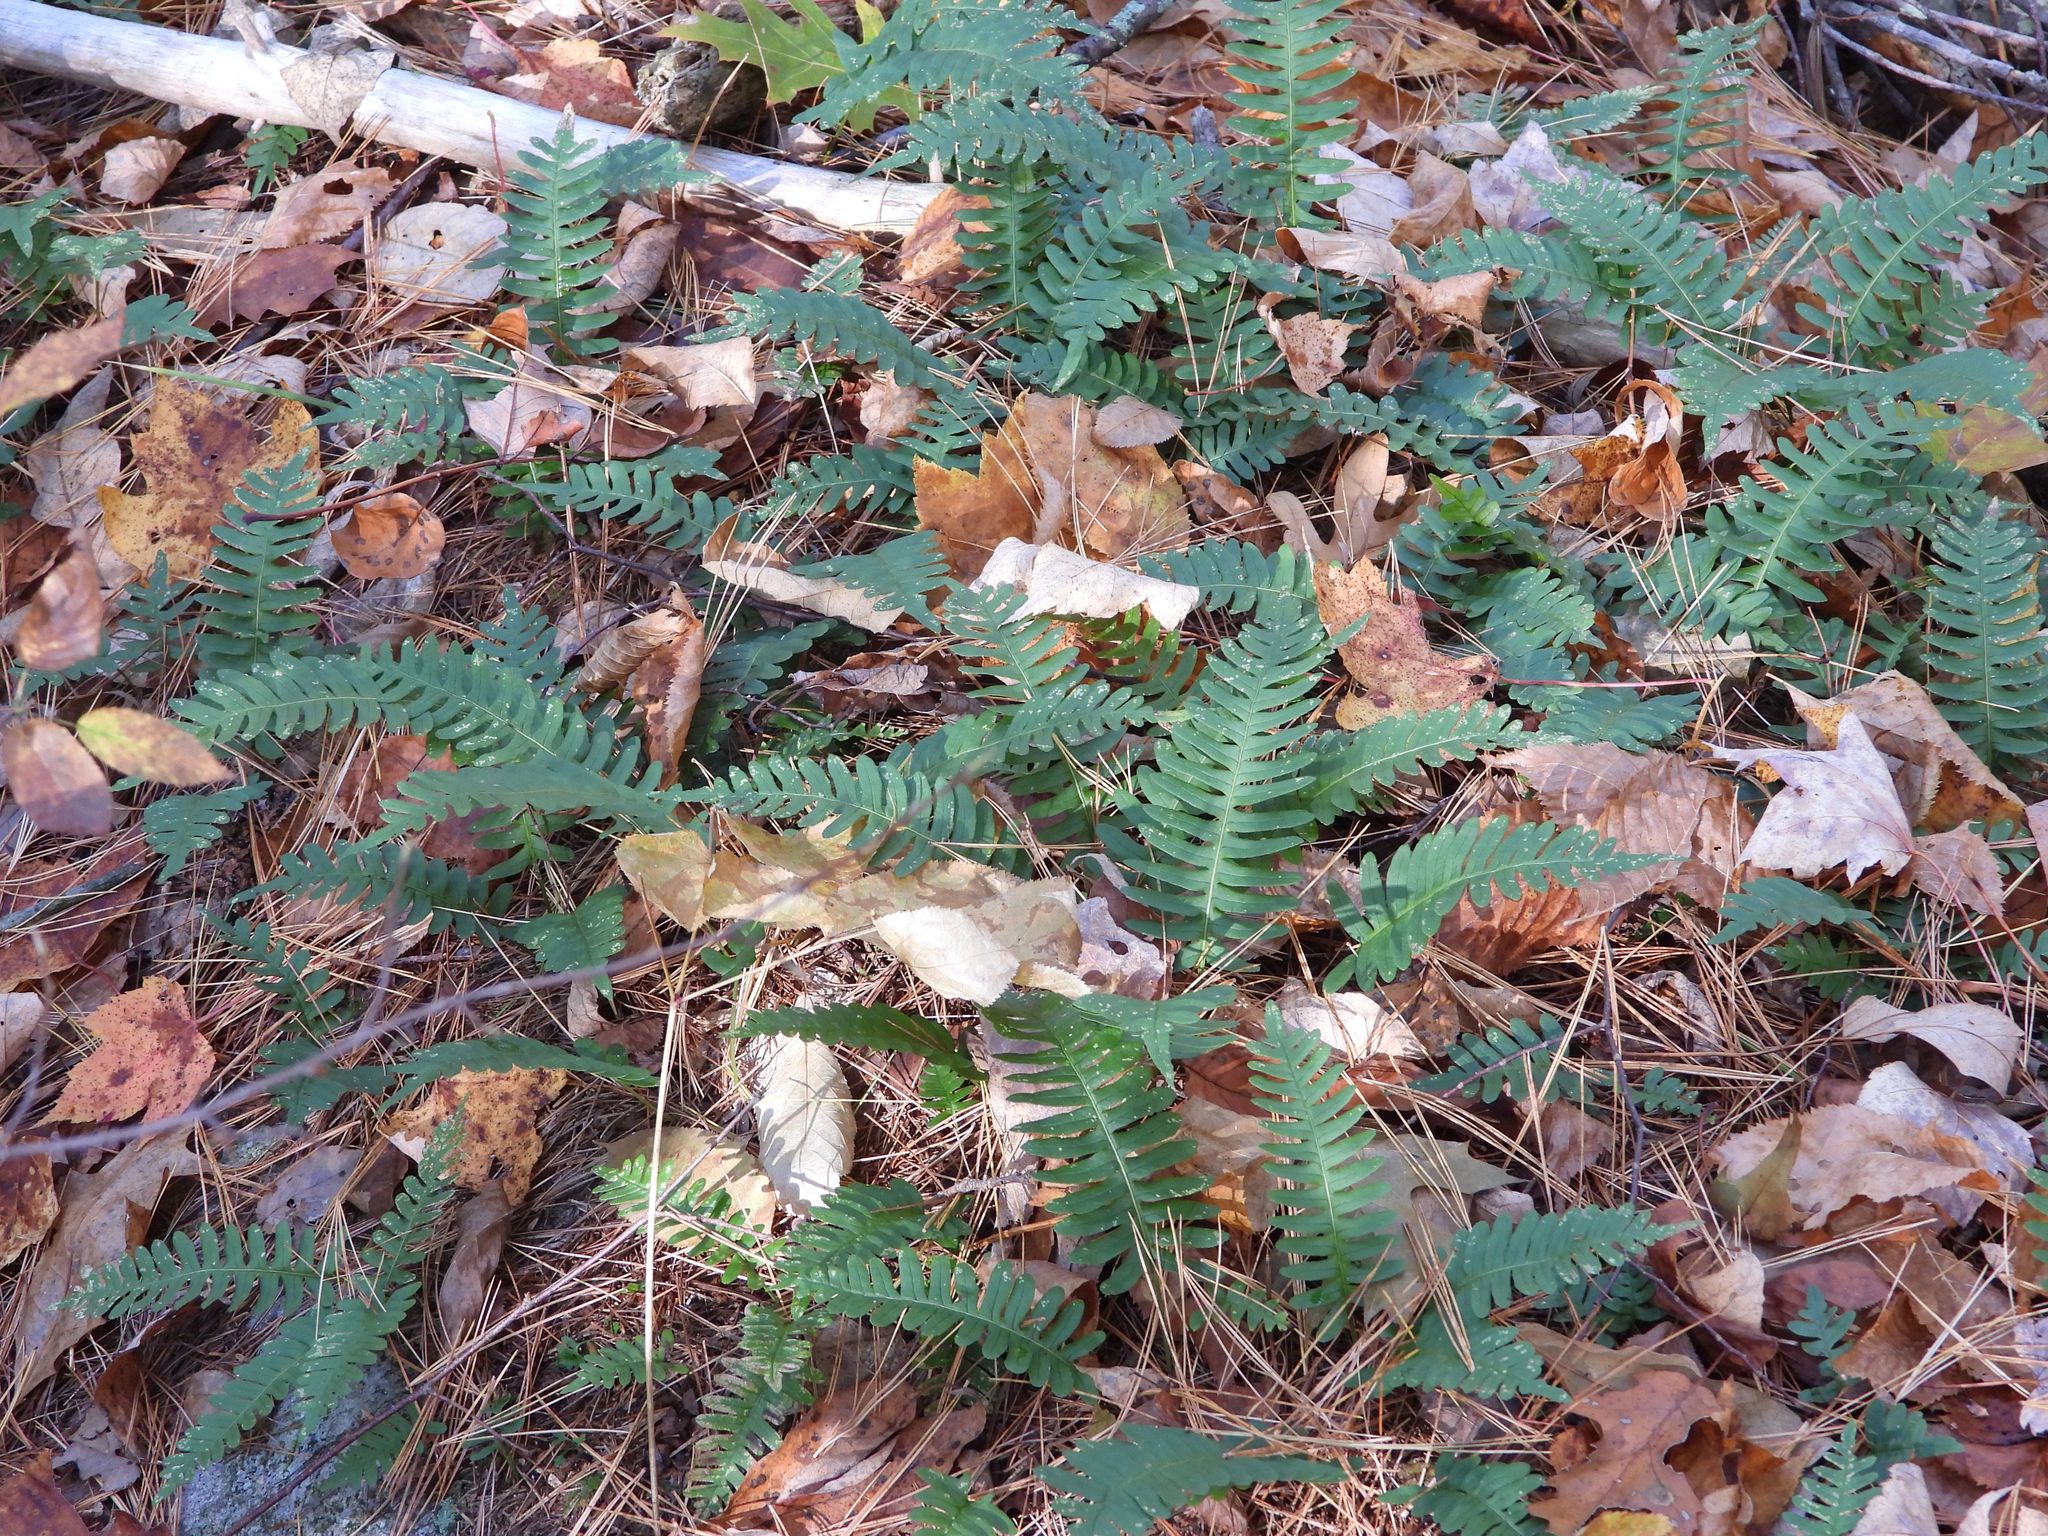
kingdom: Plantae
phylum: Tracheophyta
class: Polypodiopsida
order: Polypodiales
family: Polypodiaceae
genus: Polypodium
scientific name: Polypodium virginianum
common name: American wall fern
